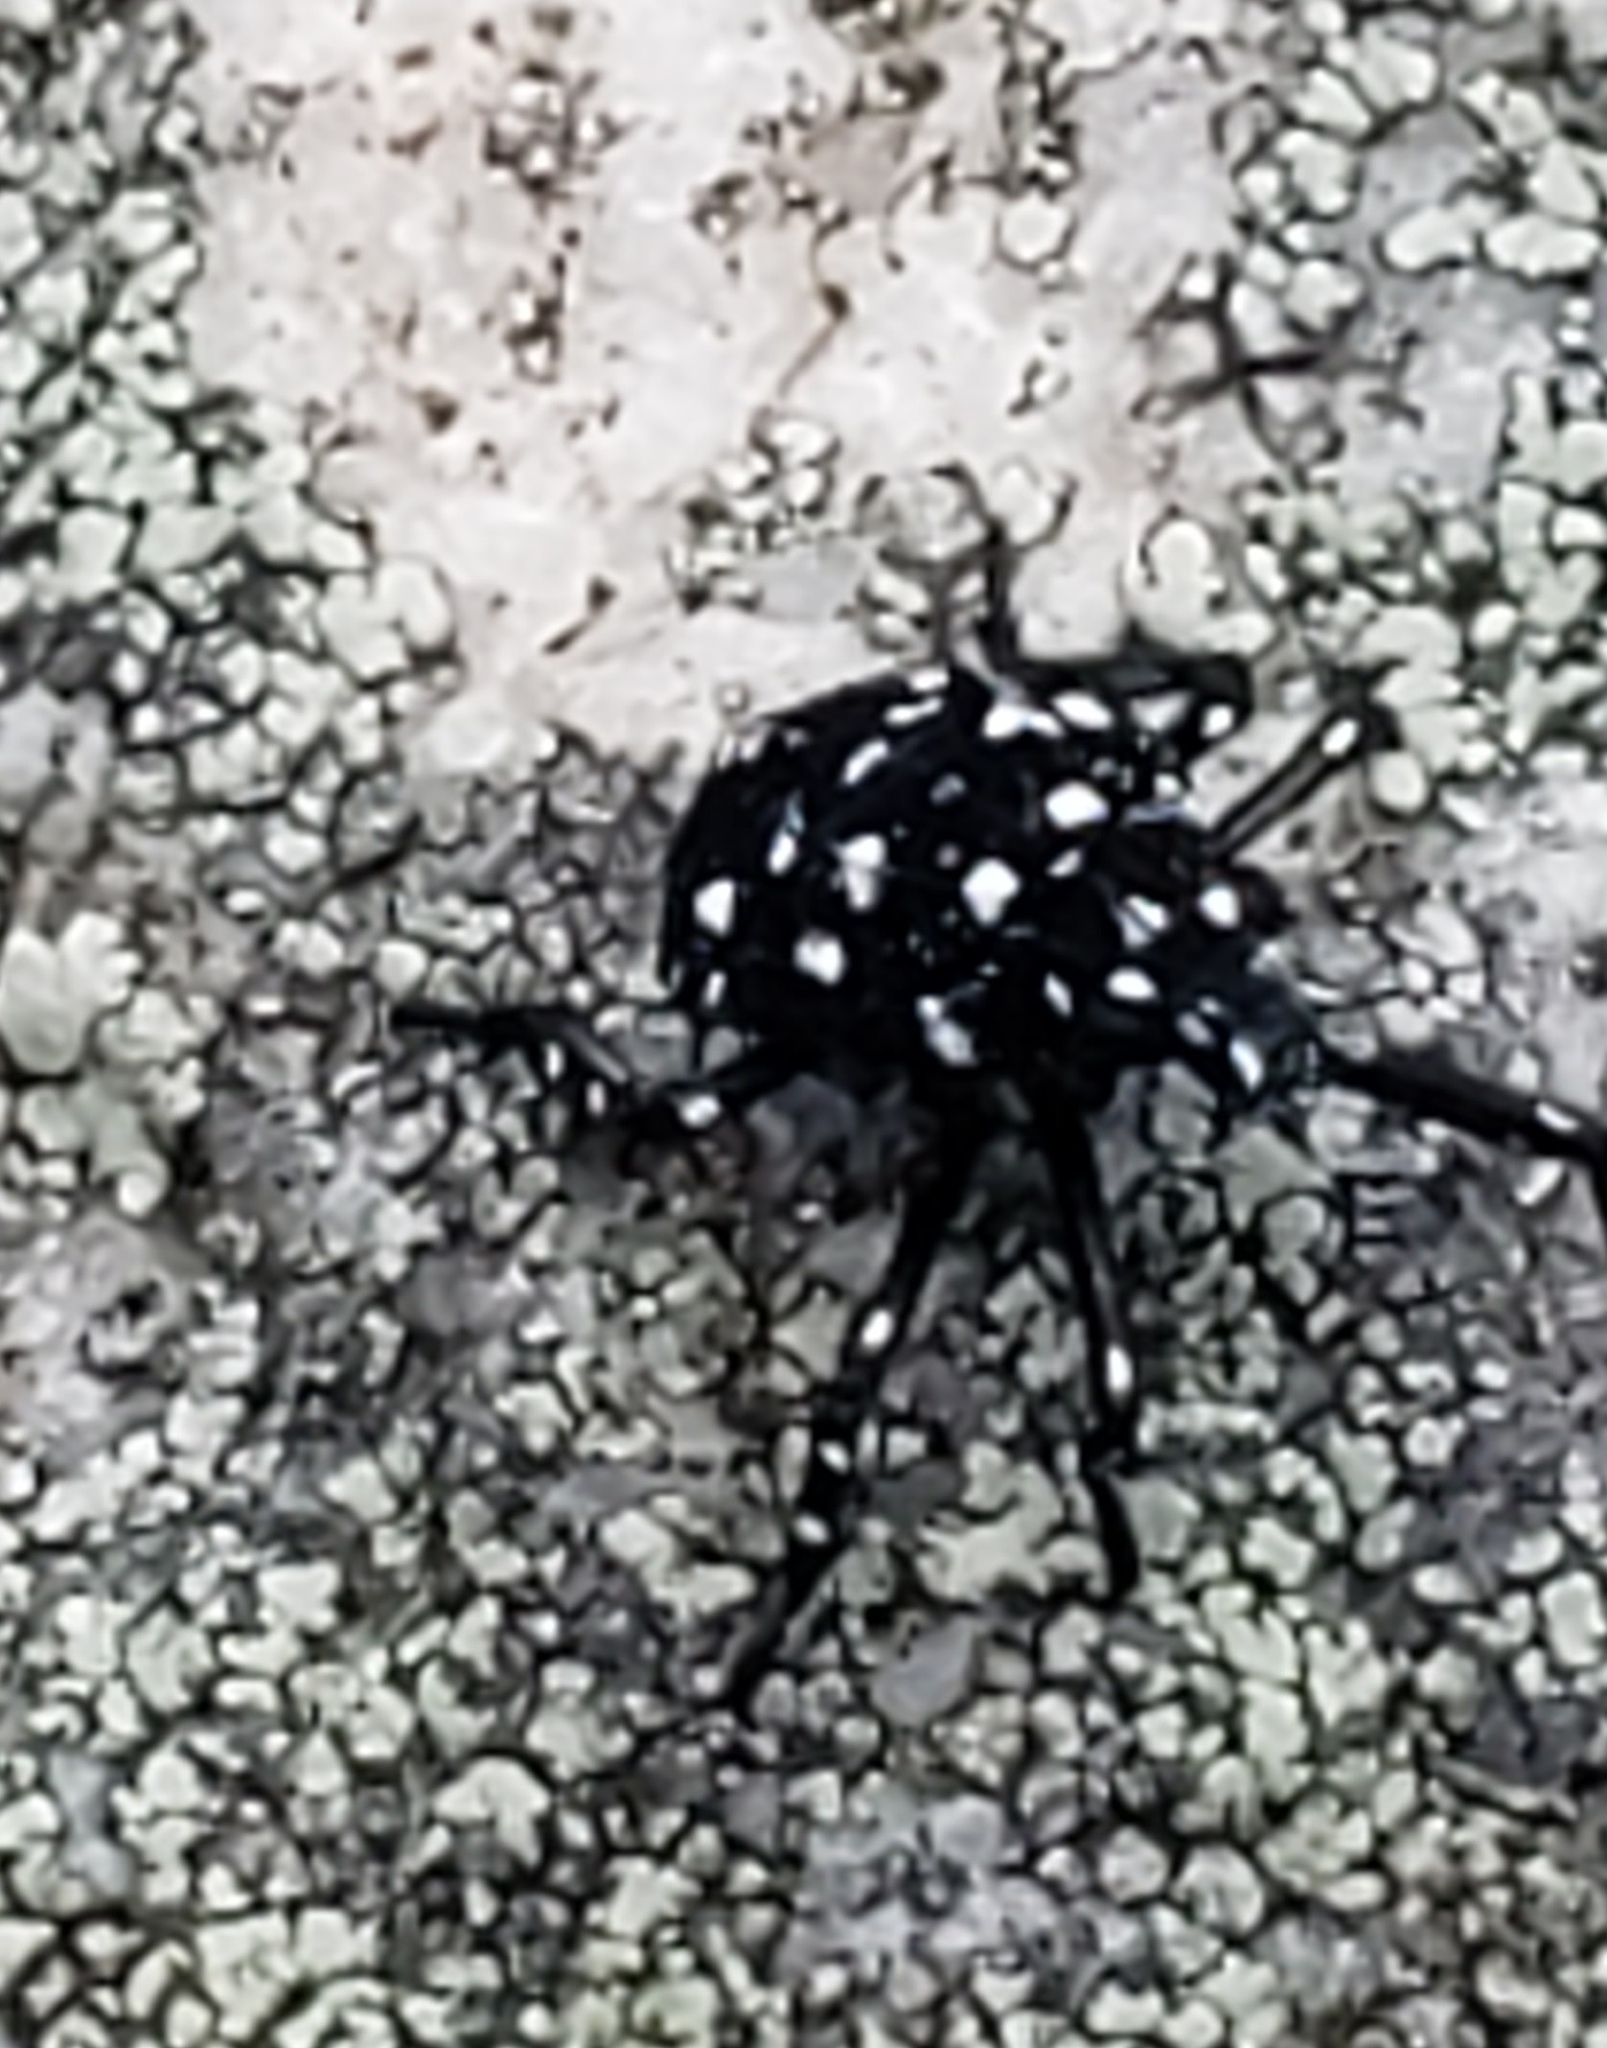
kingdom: Animalia
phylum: Arthropoda
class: Insecta
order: Hemiptera
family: Fulgoridae
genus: Lycorma
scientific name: Lycorma delicatula
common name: Spotted lanternfly
